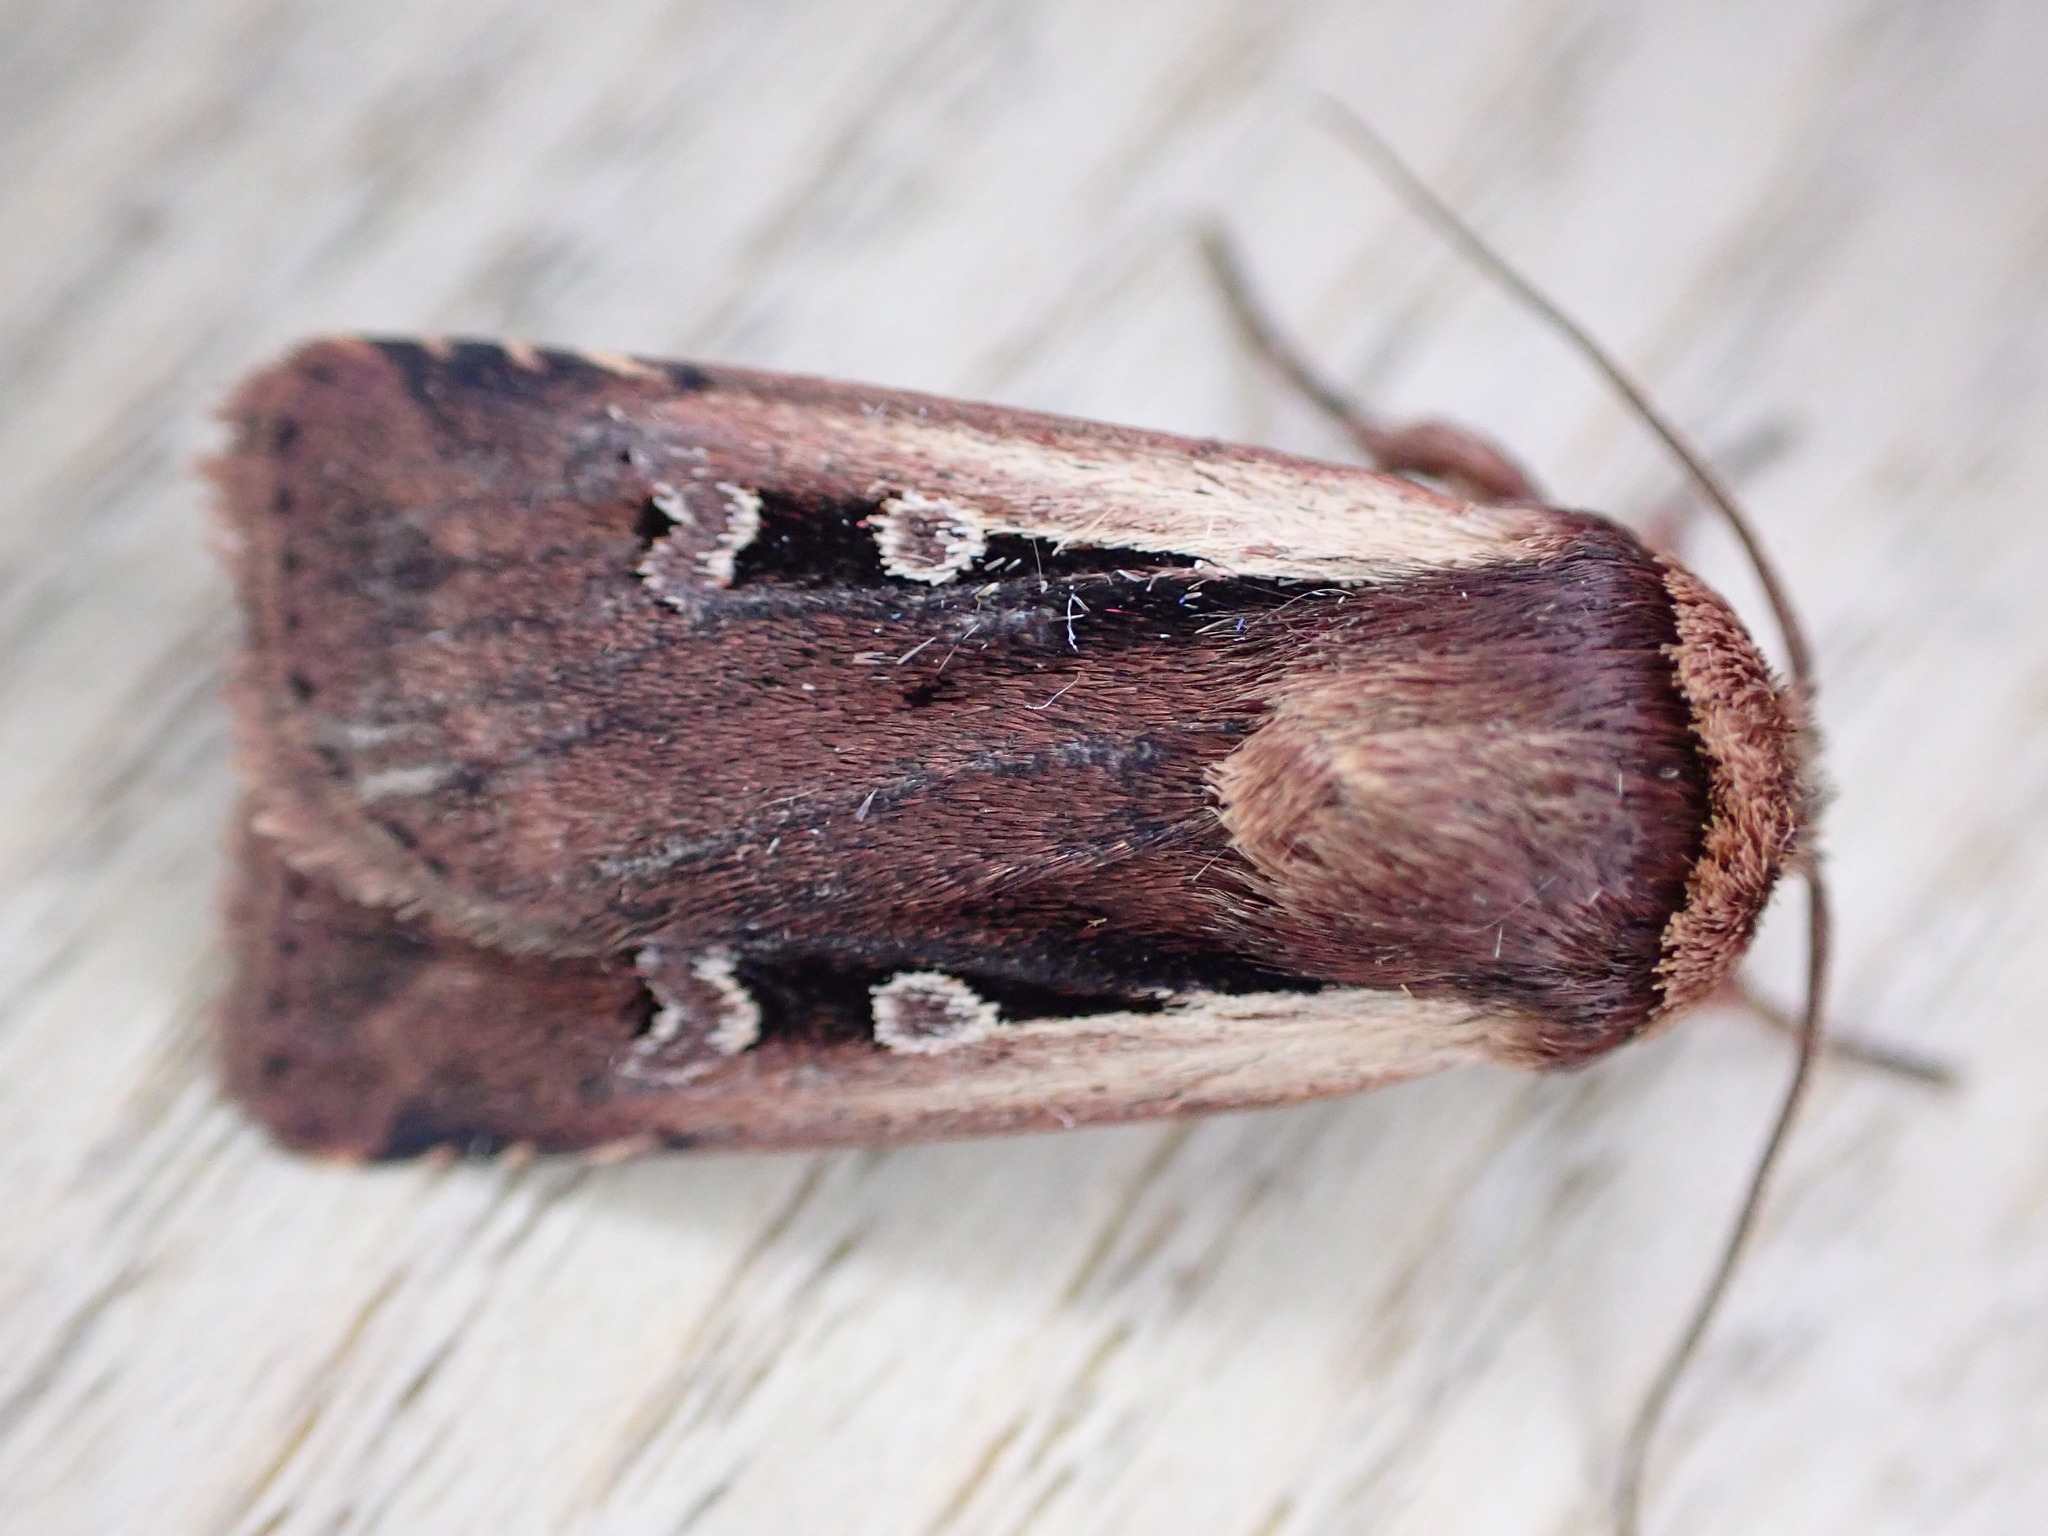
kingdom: Animalia
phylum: Arthropoda
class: Insecta
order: Lepidoptera
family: Noctuidae
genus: Ochropleura
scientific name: Ochropleura plecta
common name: Flame shoulder
